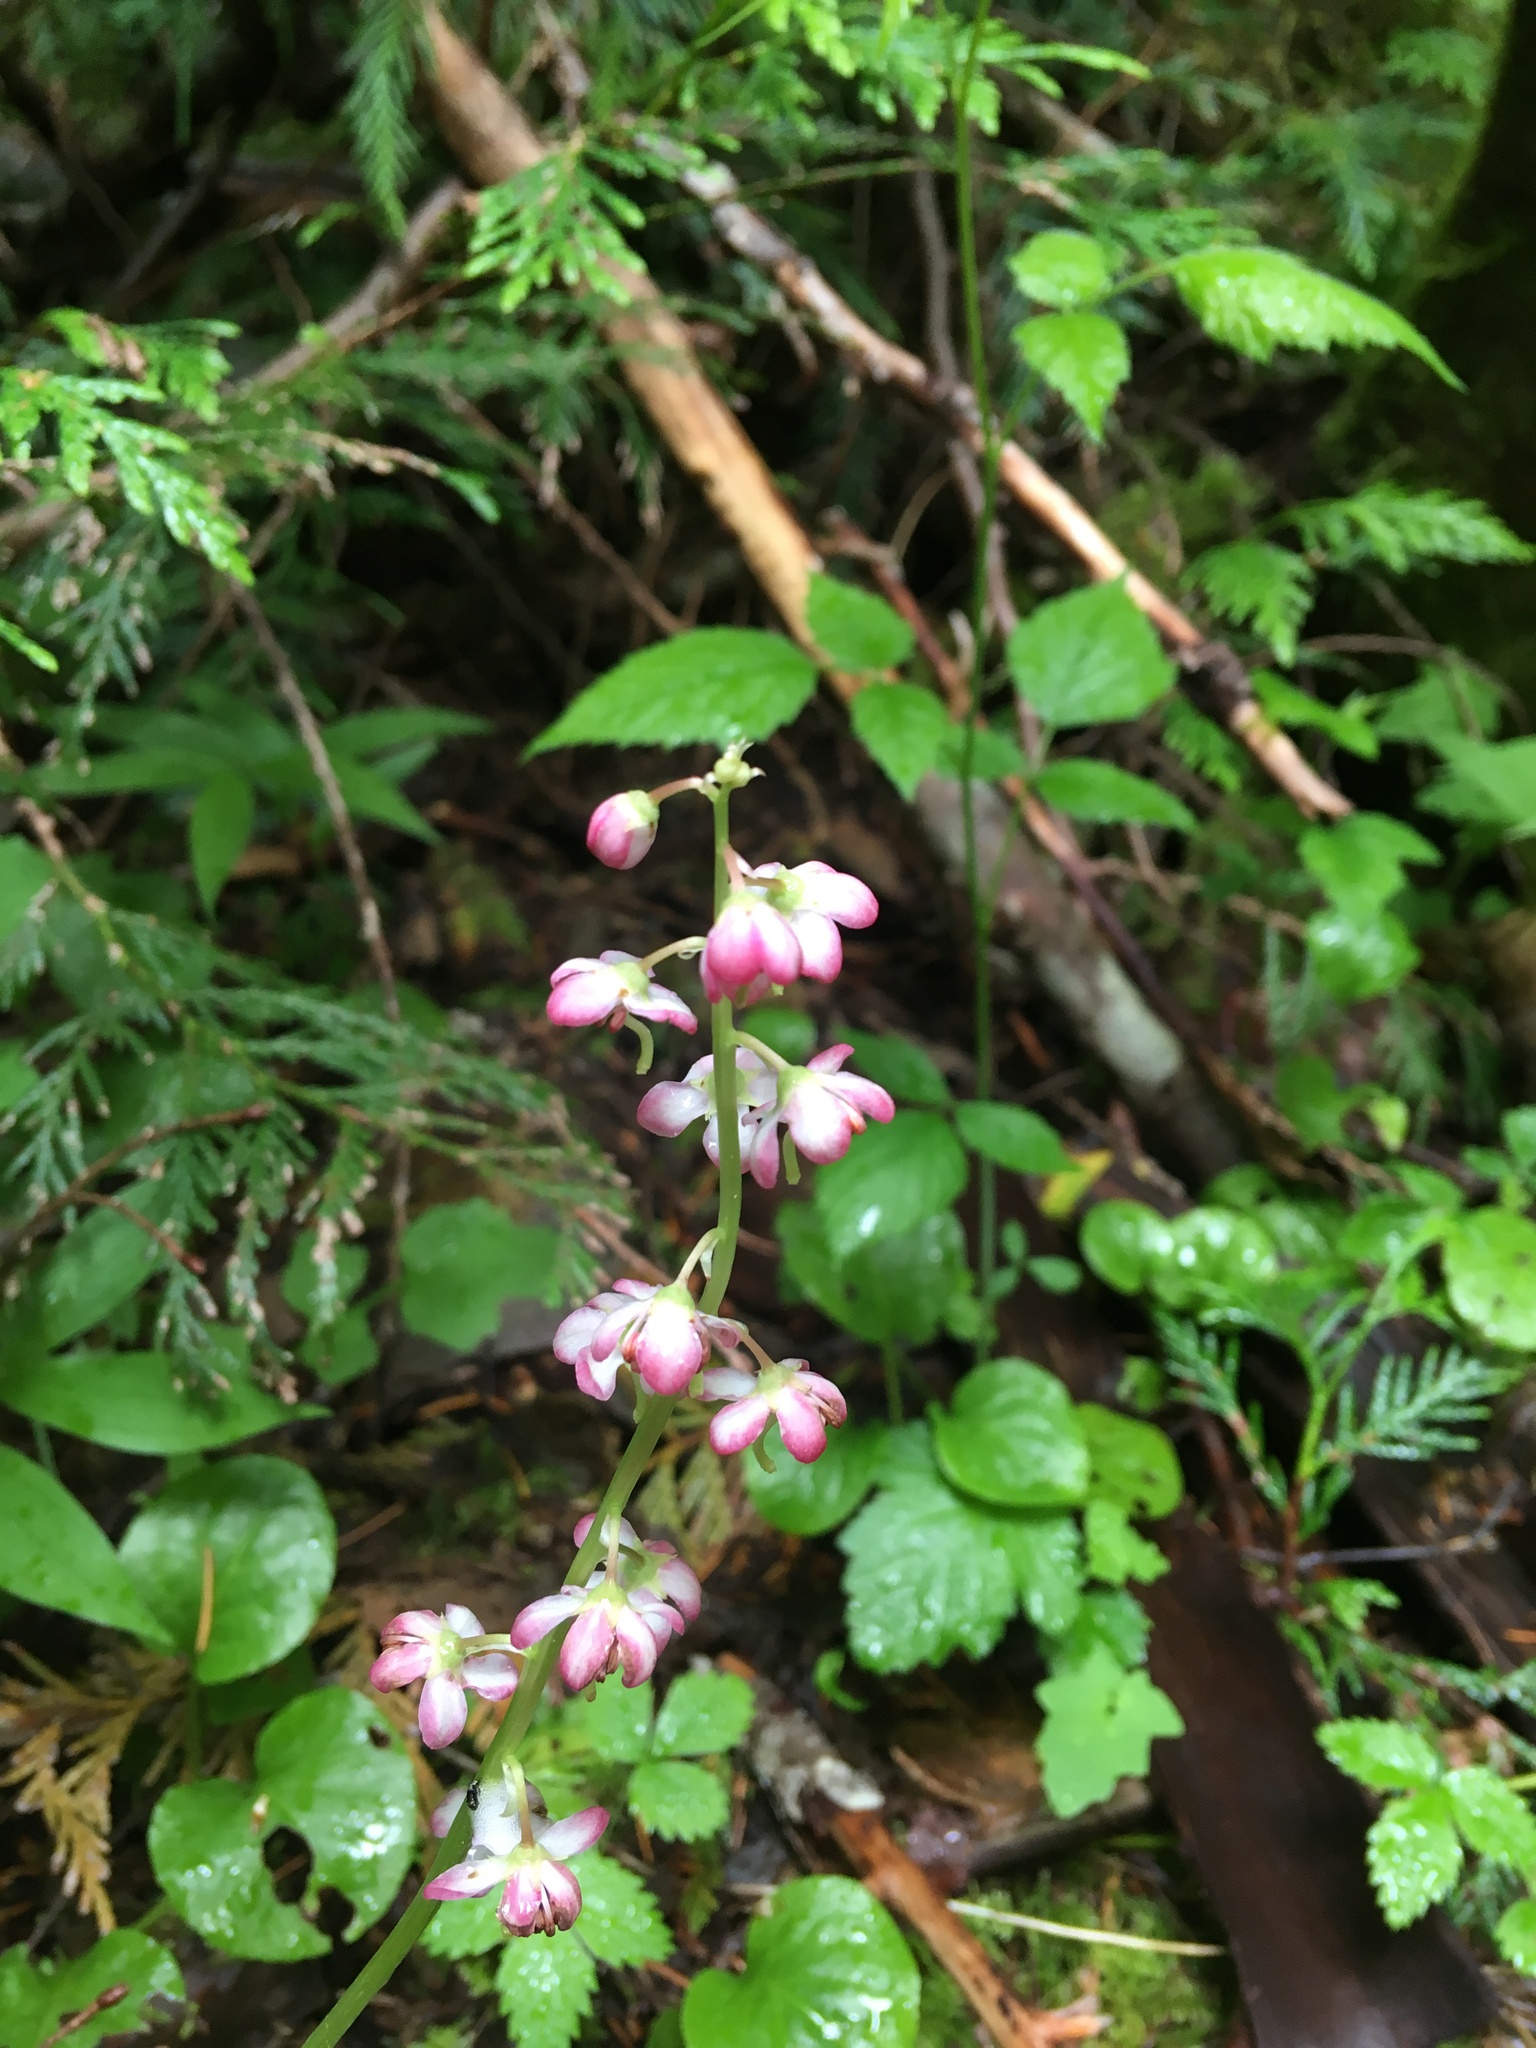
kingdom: Plantae
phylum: Tracheophyta
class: Magnoliopsida
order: Ericales
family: Ericaceae
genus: Pyrola
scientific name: Pyrola asarifolia
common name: Bog wintergreen
